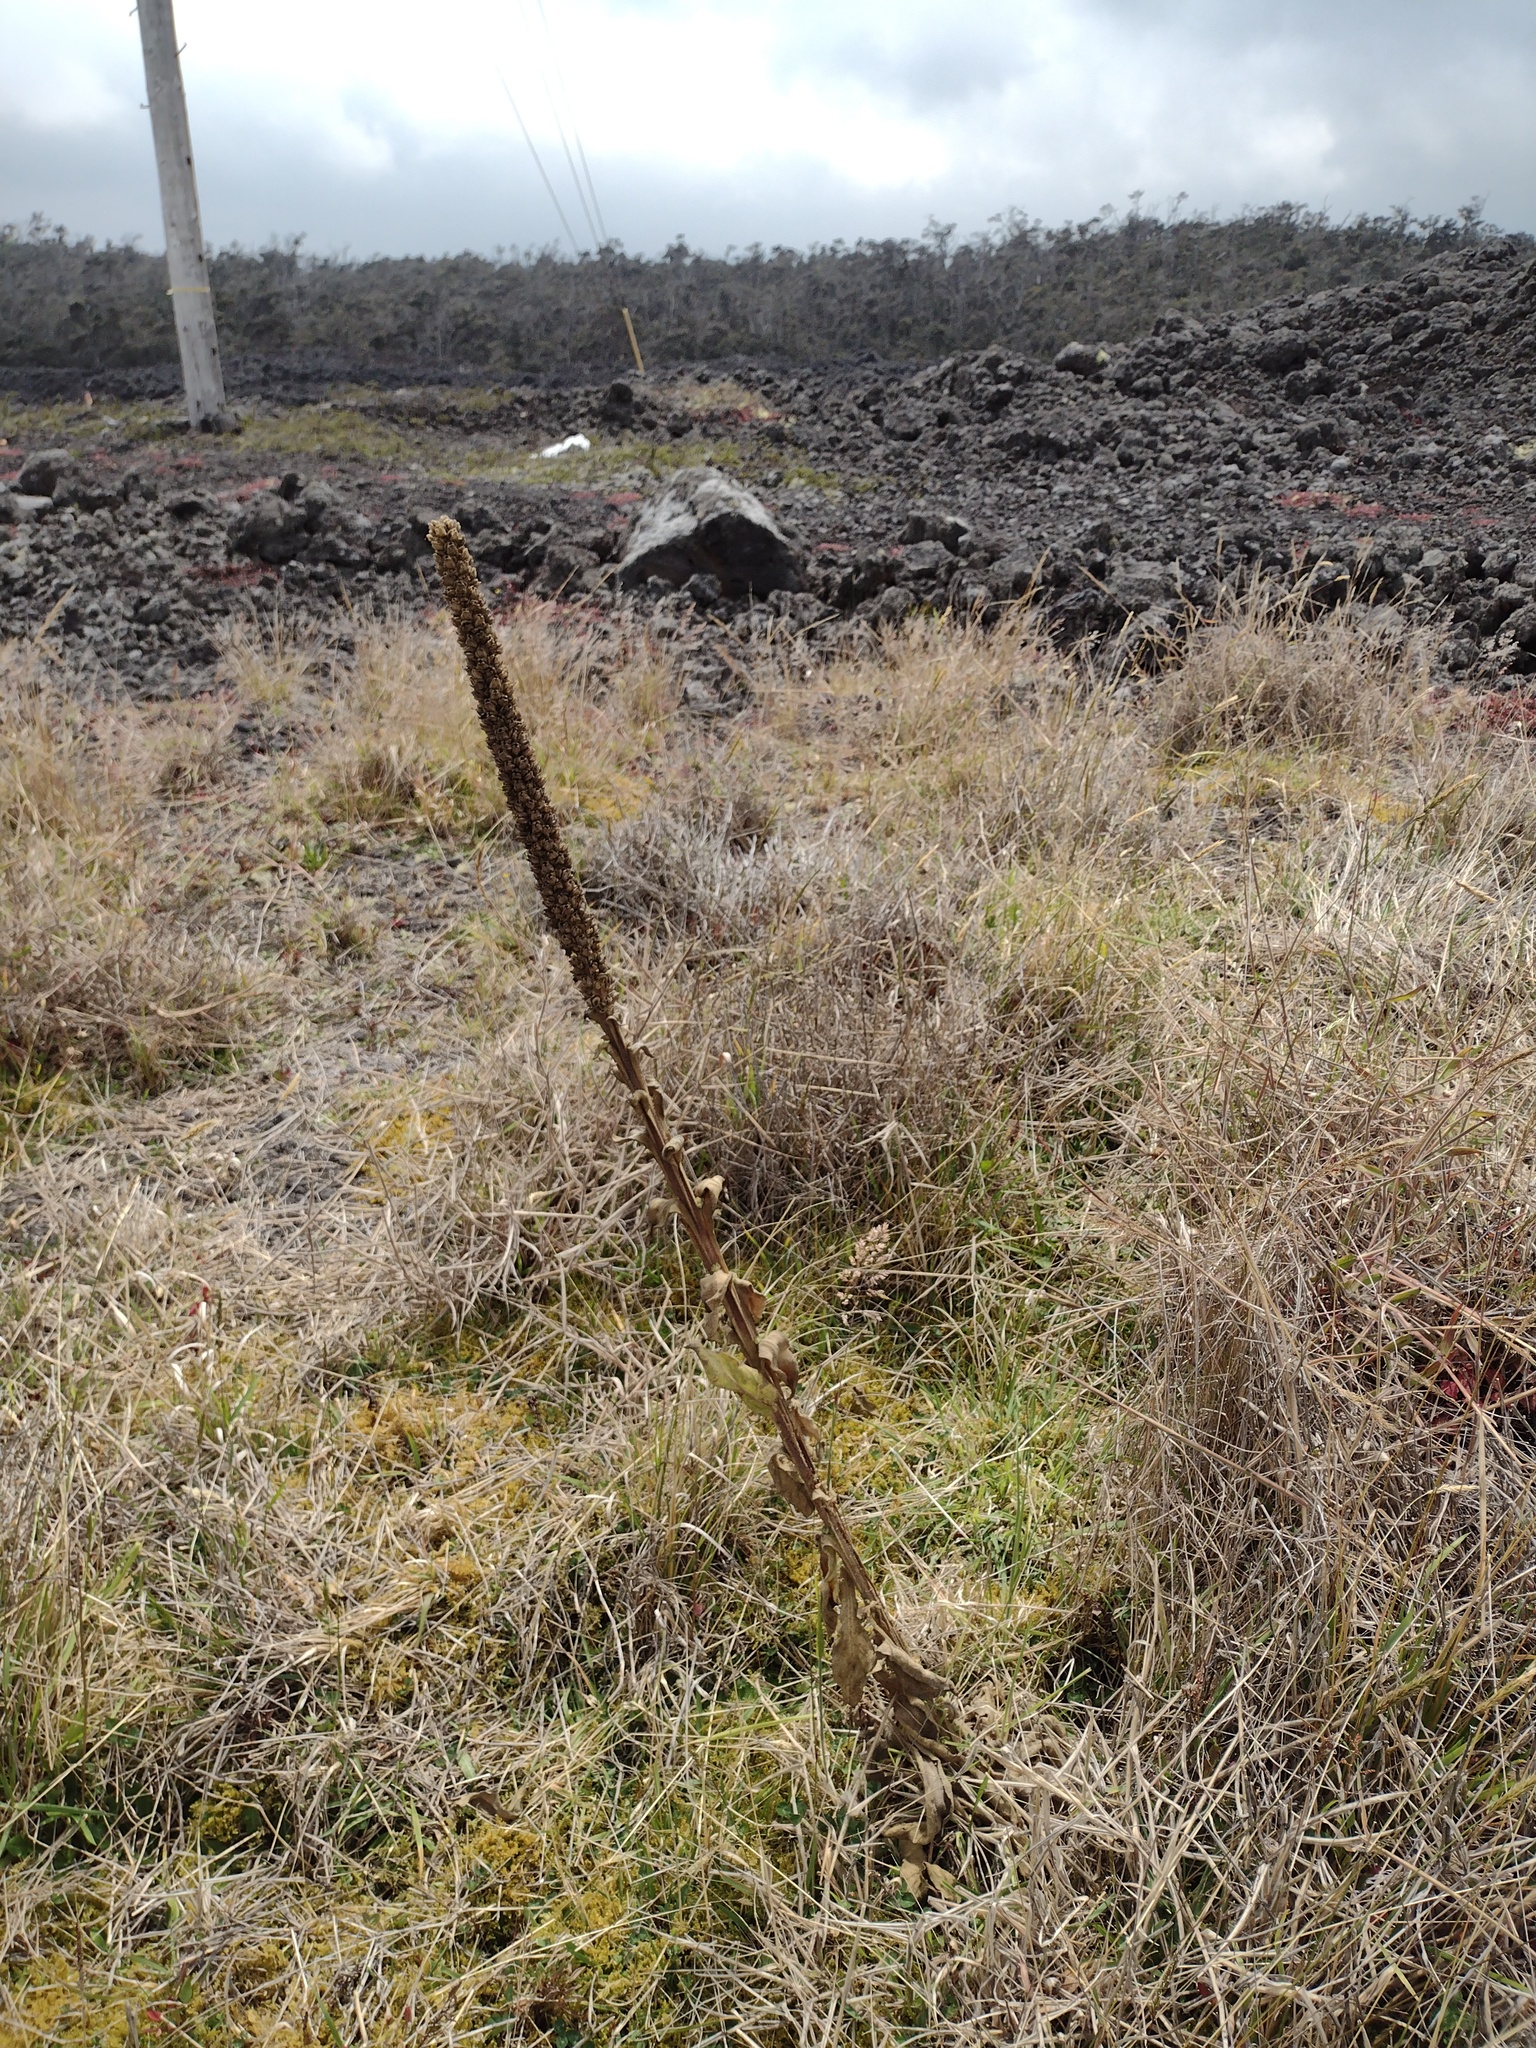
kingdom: Plantae
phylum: Tracheophyta
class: Magnoliopsida
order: Lamiales
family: Scrophulariaceae
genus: Verbascum
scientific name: Verbascum thapsus
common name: Common mullein
